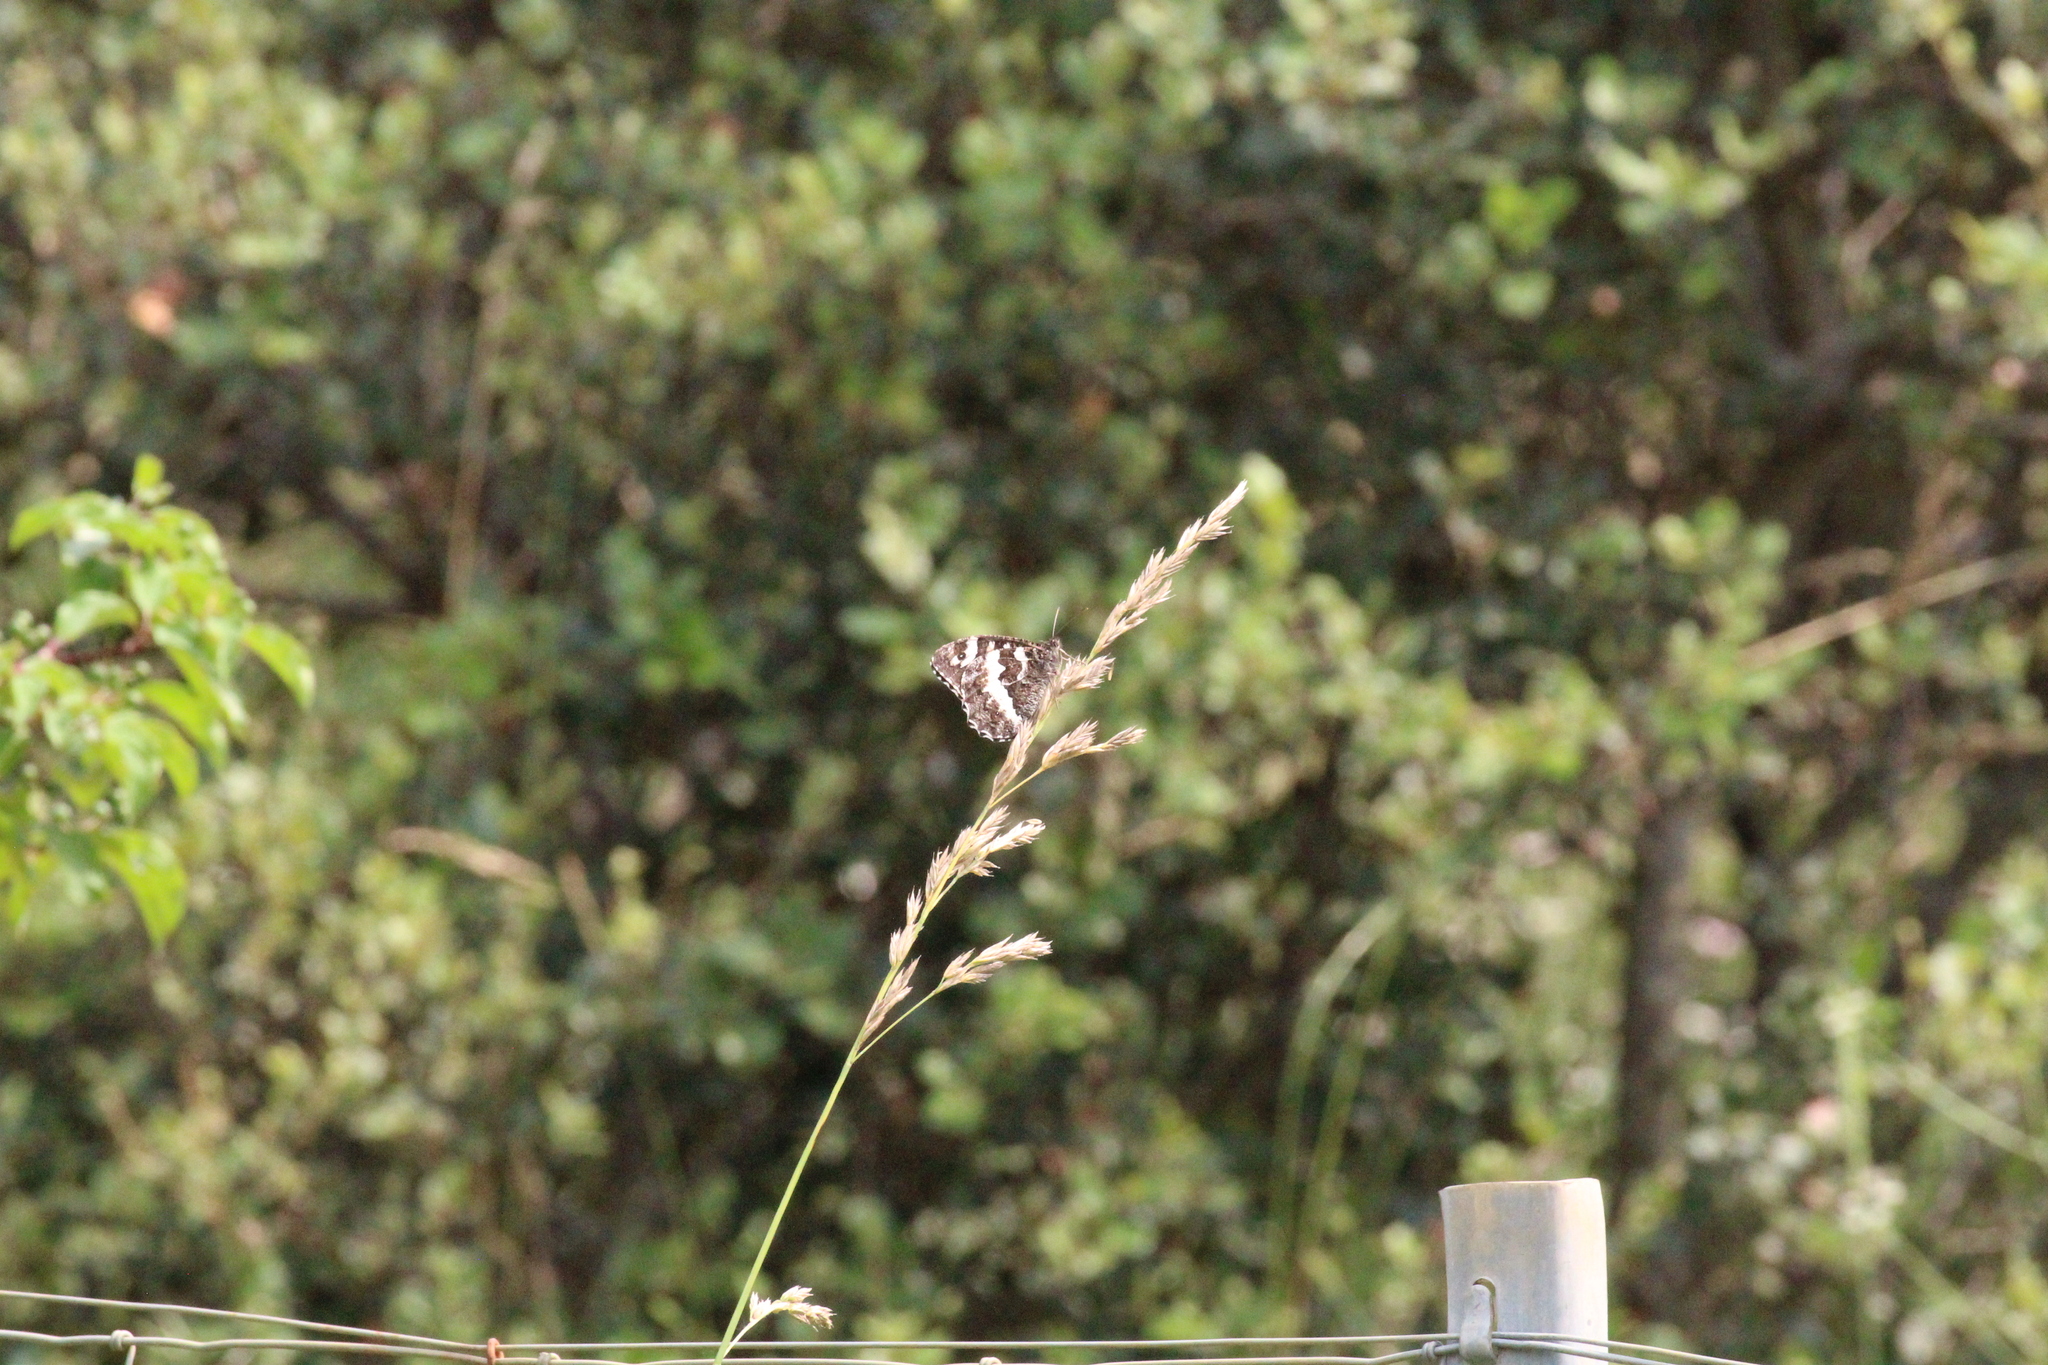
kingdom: Animalia
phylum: Arthropoda
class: Insecta
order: Lepidoptera
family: Lycaenidae
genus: Loweia
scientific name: Loweia tityrus
